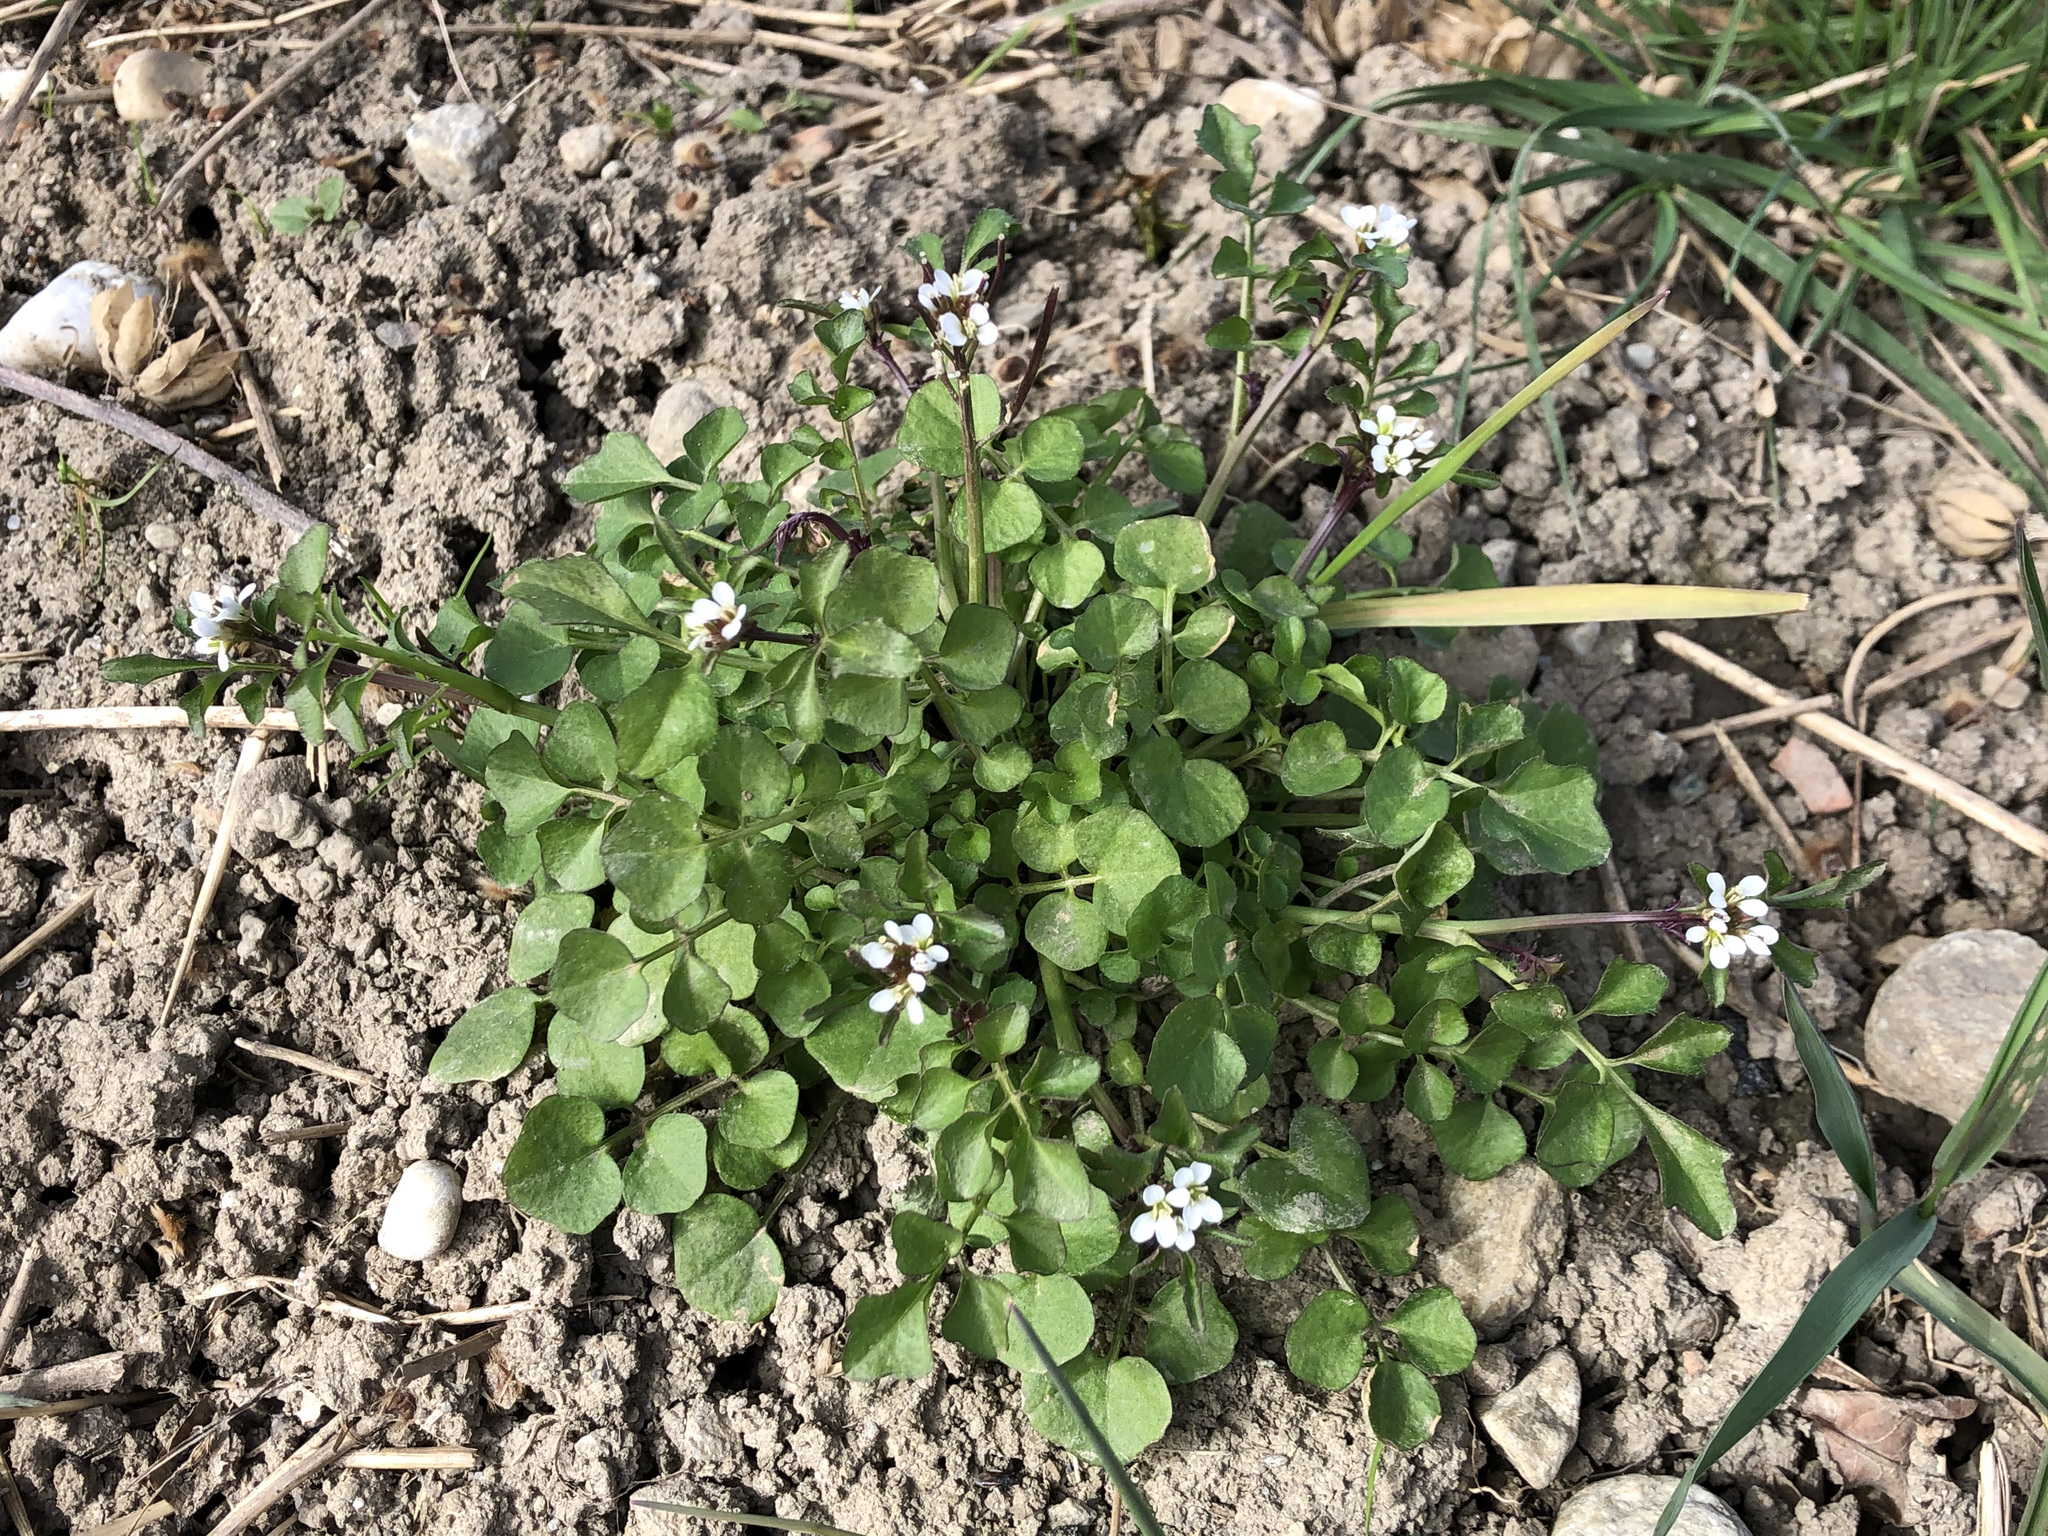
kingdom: Plantae
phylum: Tracheophyta
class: Magnoliopsida
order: Brassicales
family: Brassicaceae
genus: Cardamine
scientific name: Cardamine hirsuta
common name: Hairy bittercress
